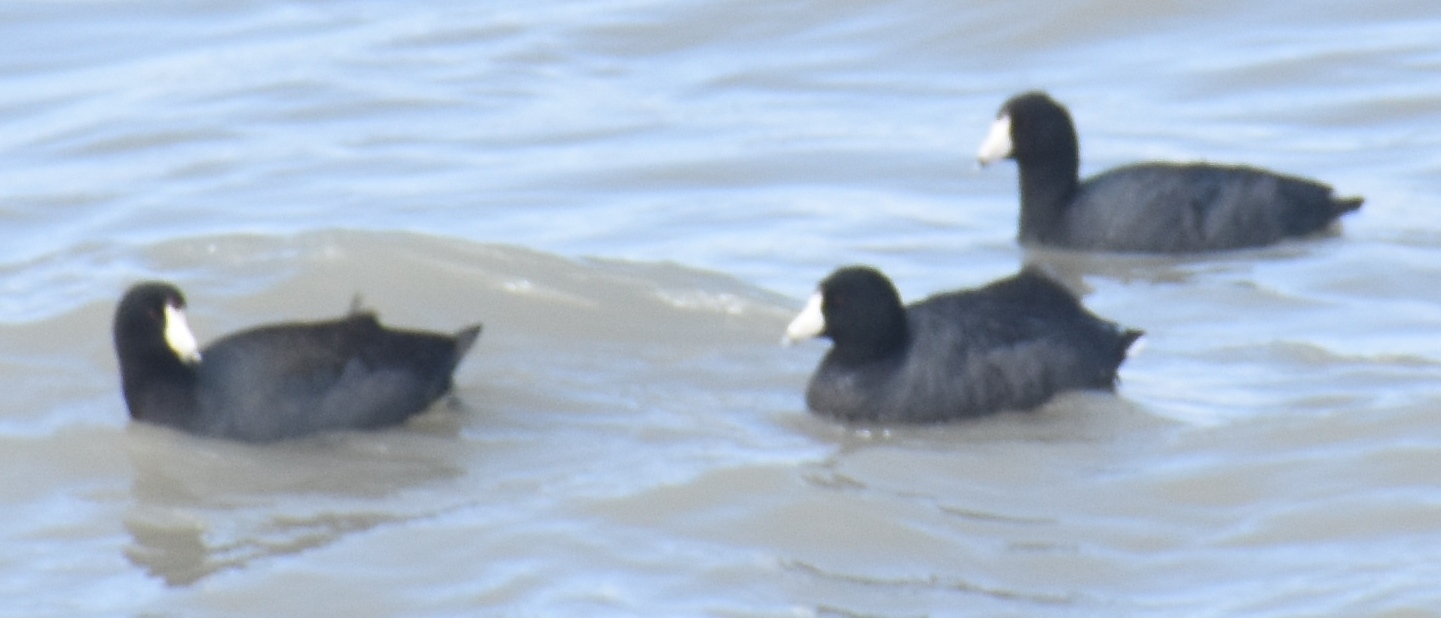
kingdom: Animalia
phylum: Chordata
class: Aves
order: Gruiformes
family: Rallidae
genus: Fulica
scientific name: Fulica americana
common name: American coot
